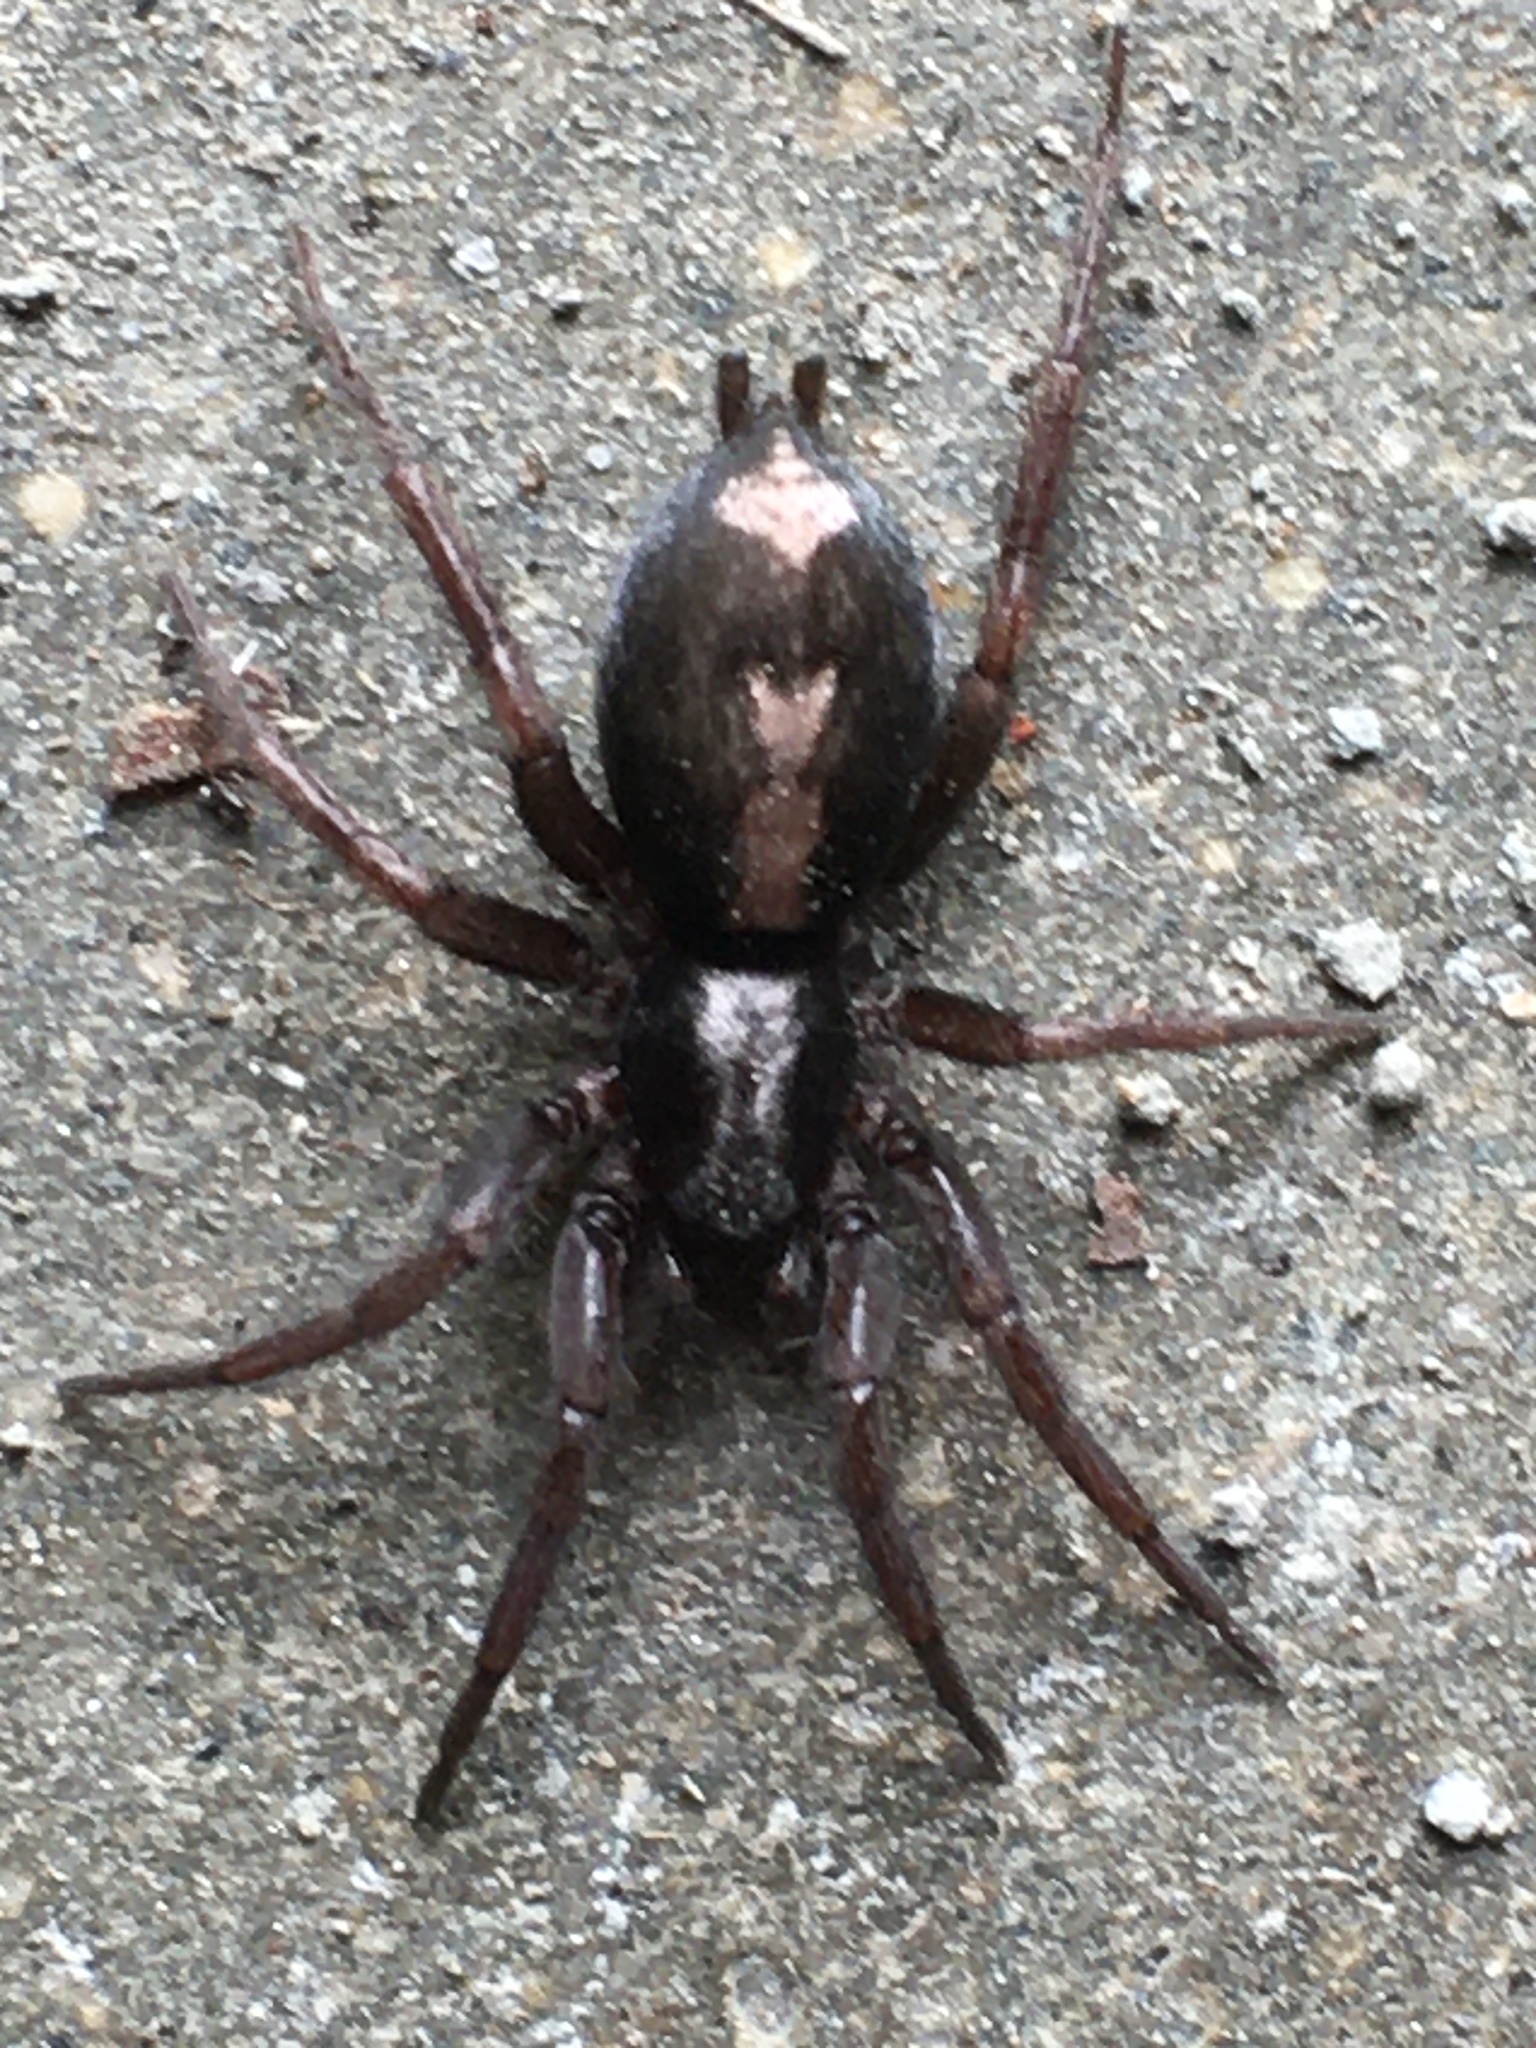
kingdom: Animalia
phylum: Arthropoda
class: Arachnida
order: Araneae
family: Gnaphosidae
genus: Herpyllus
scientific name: Herpyllus ecclesiasticus
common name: Eastern parson spider
